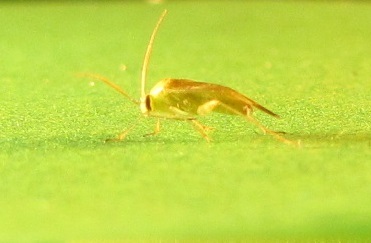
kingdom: Animalia
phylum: Arthropoda
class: Insecta
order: Hemiptera
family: Miridae
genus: Taylorilygus
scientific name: Taylorilygus apicalis
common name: Plant bug
